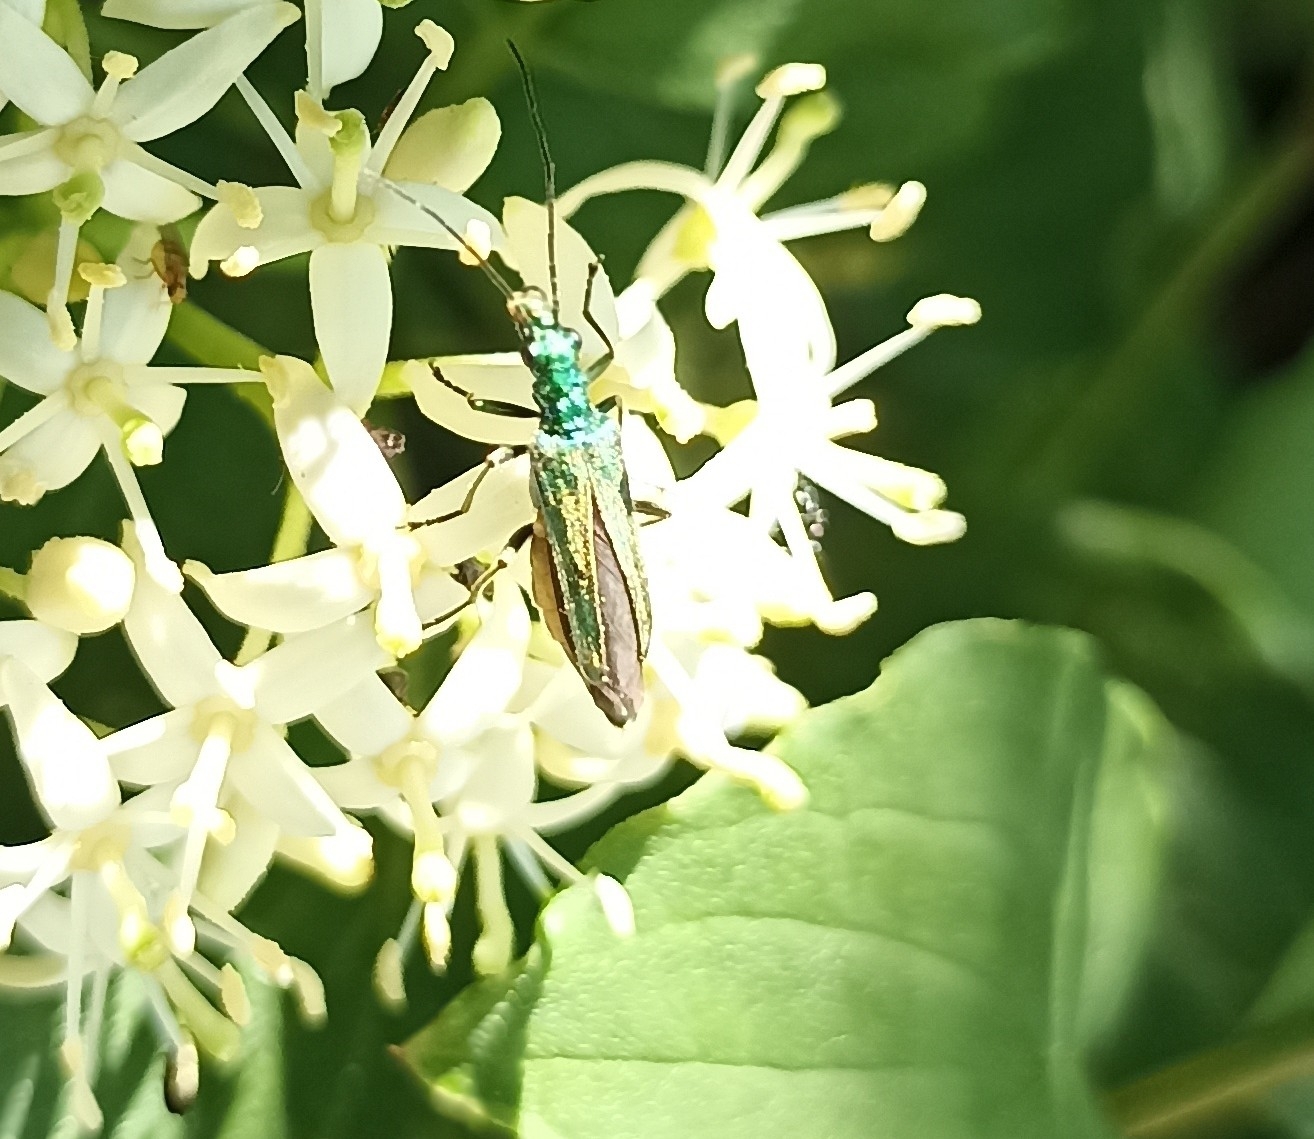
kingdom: Animalia
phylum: Arthropoda
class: Insecta
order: Coleoptera
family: Oedemeridae
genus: Oedemera
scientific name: Oedemera nobilis
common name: Swollen-thighed beetle
